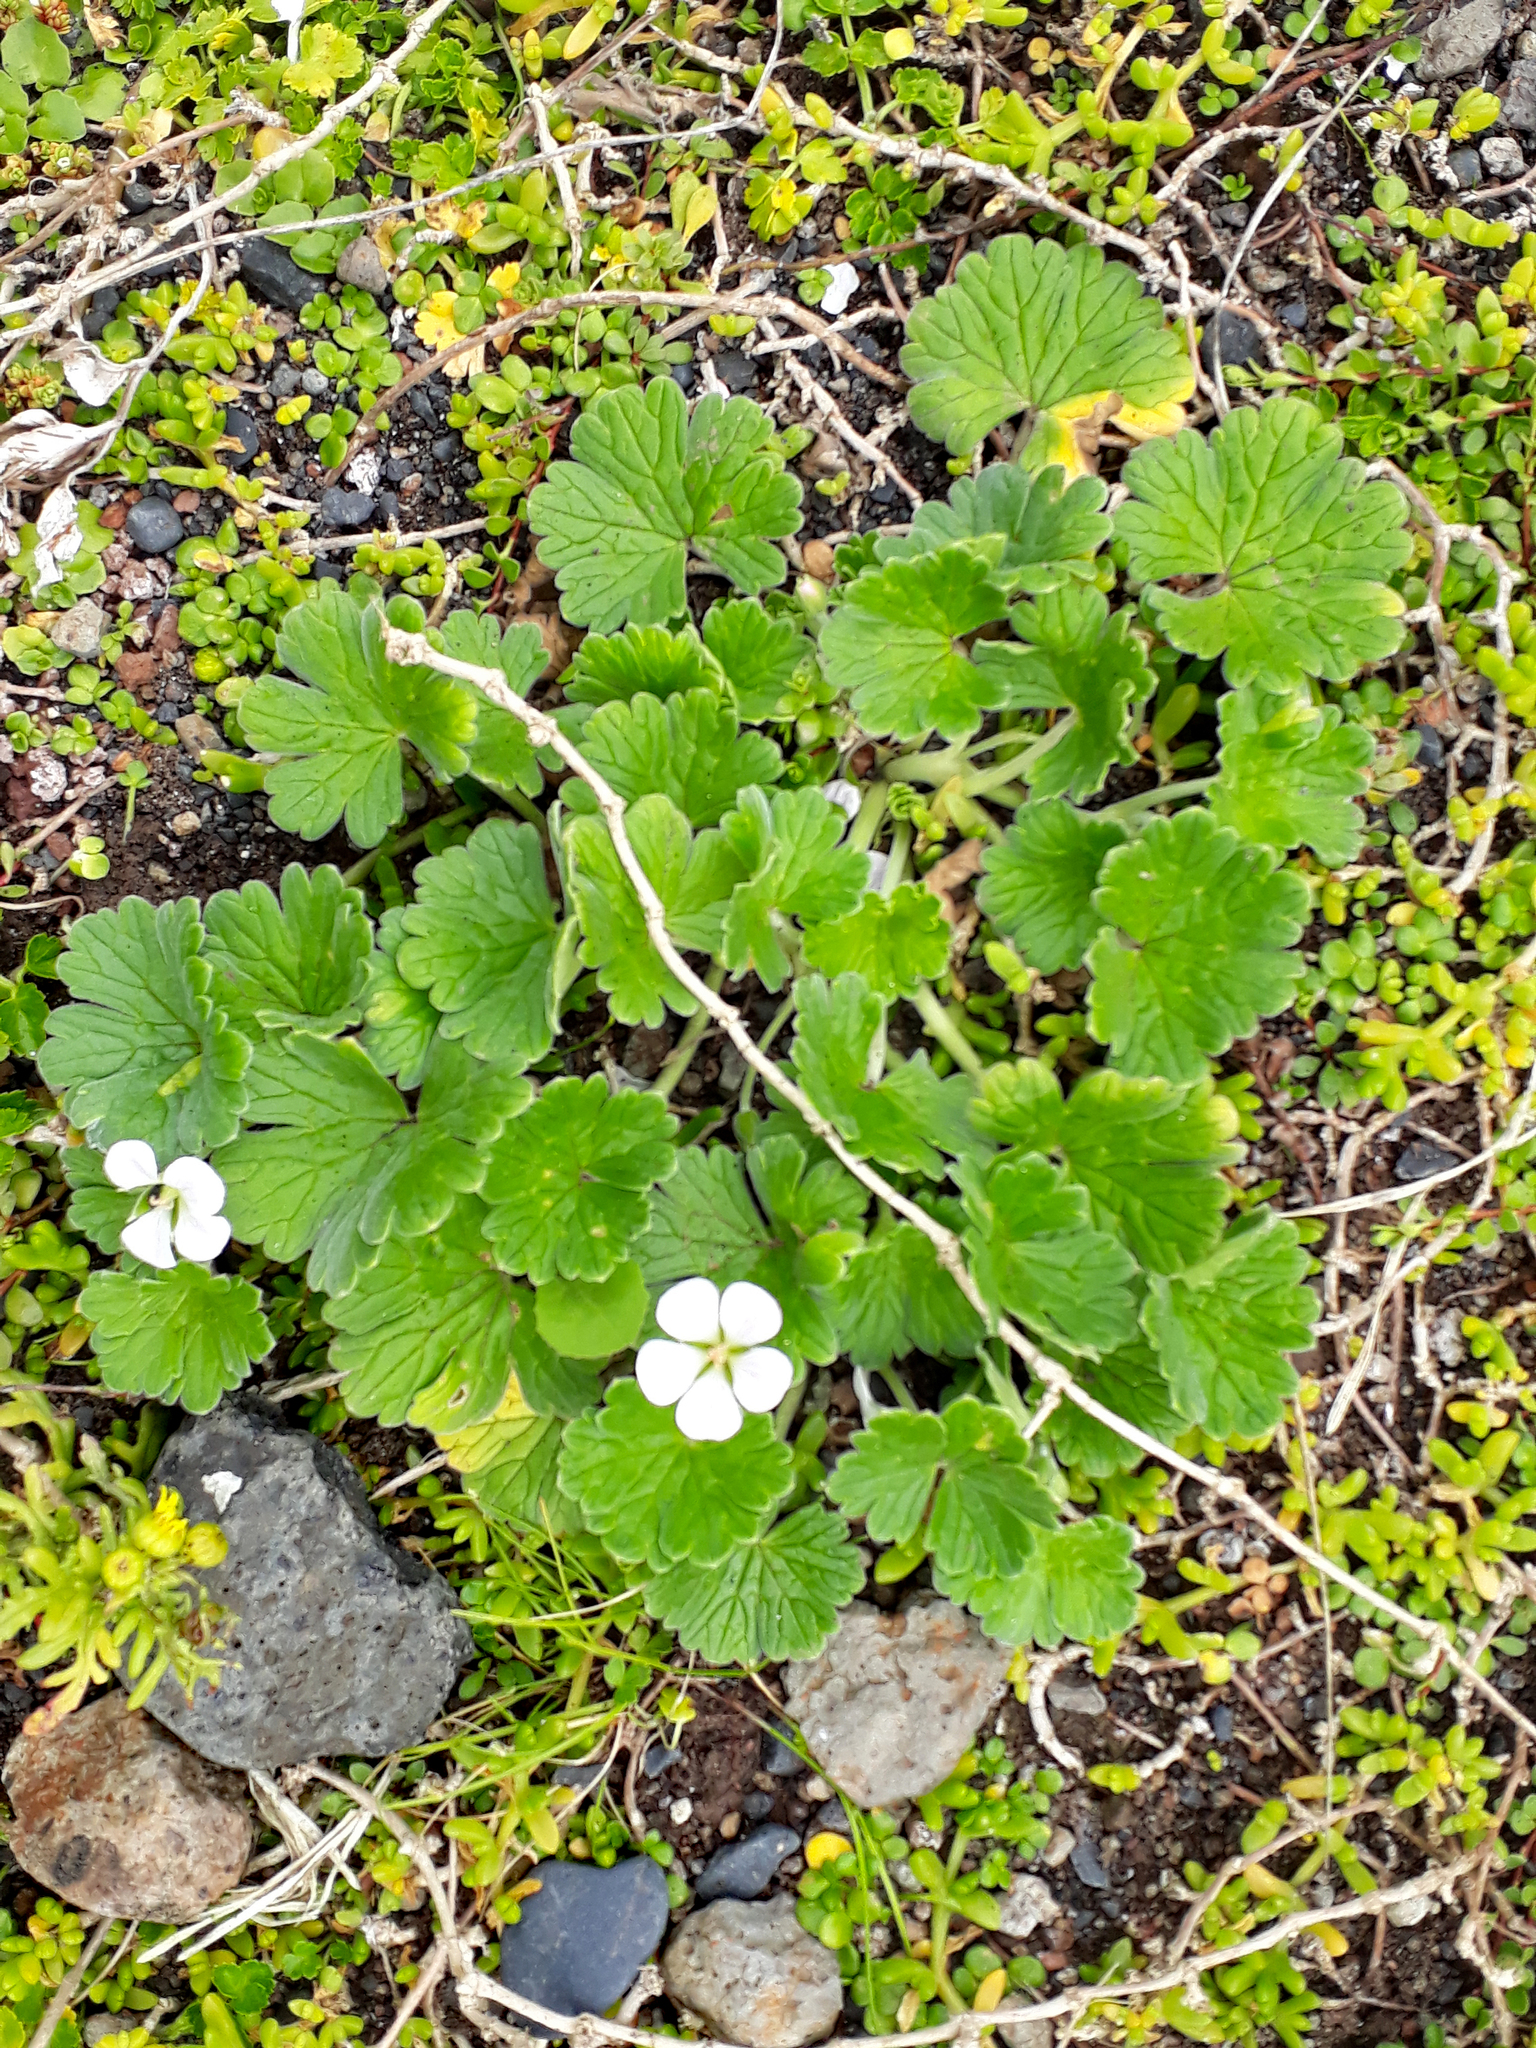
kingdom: Plantae
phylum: Tracheophyta
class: Magnoliopsida
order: Geraniales
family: Geraniaceae
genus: Geranium
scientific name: Geranium traversii
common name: Cranesbill
